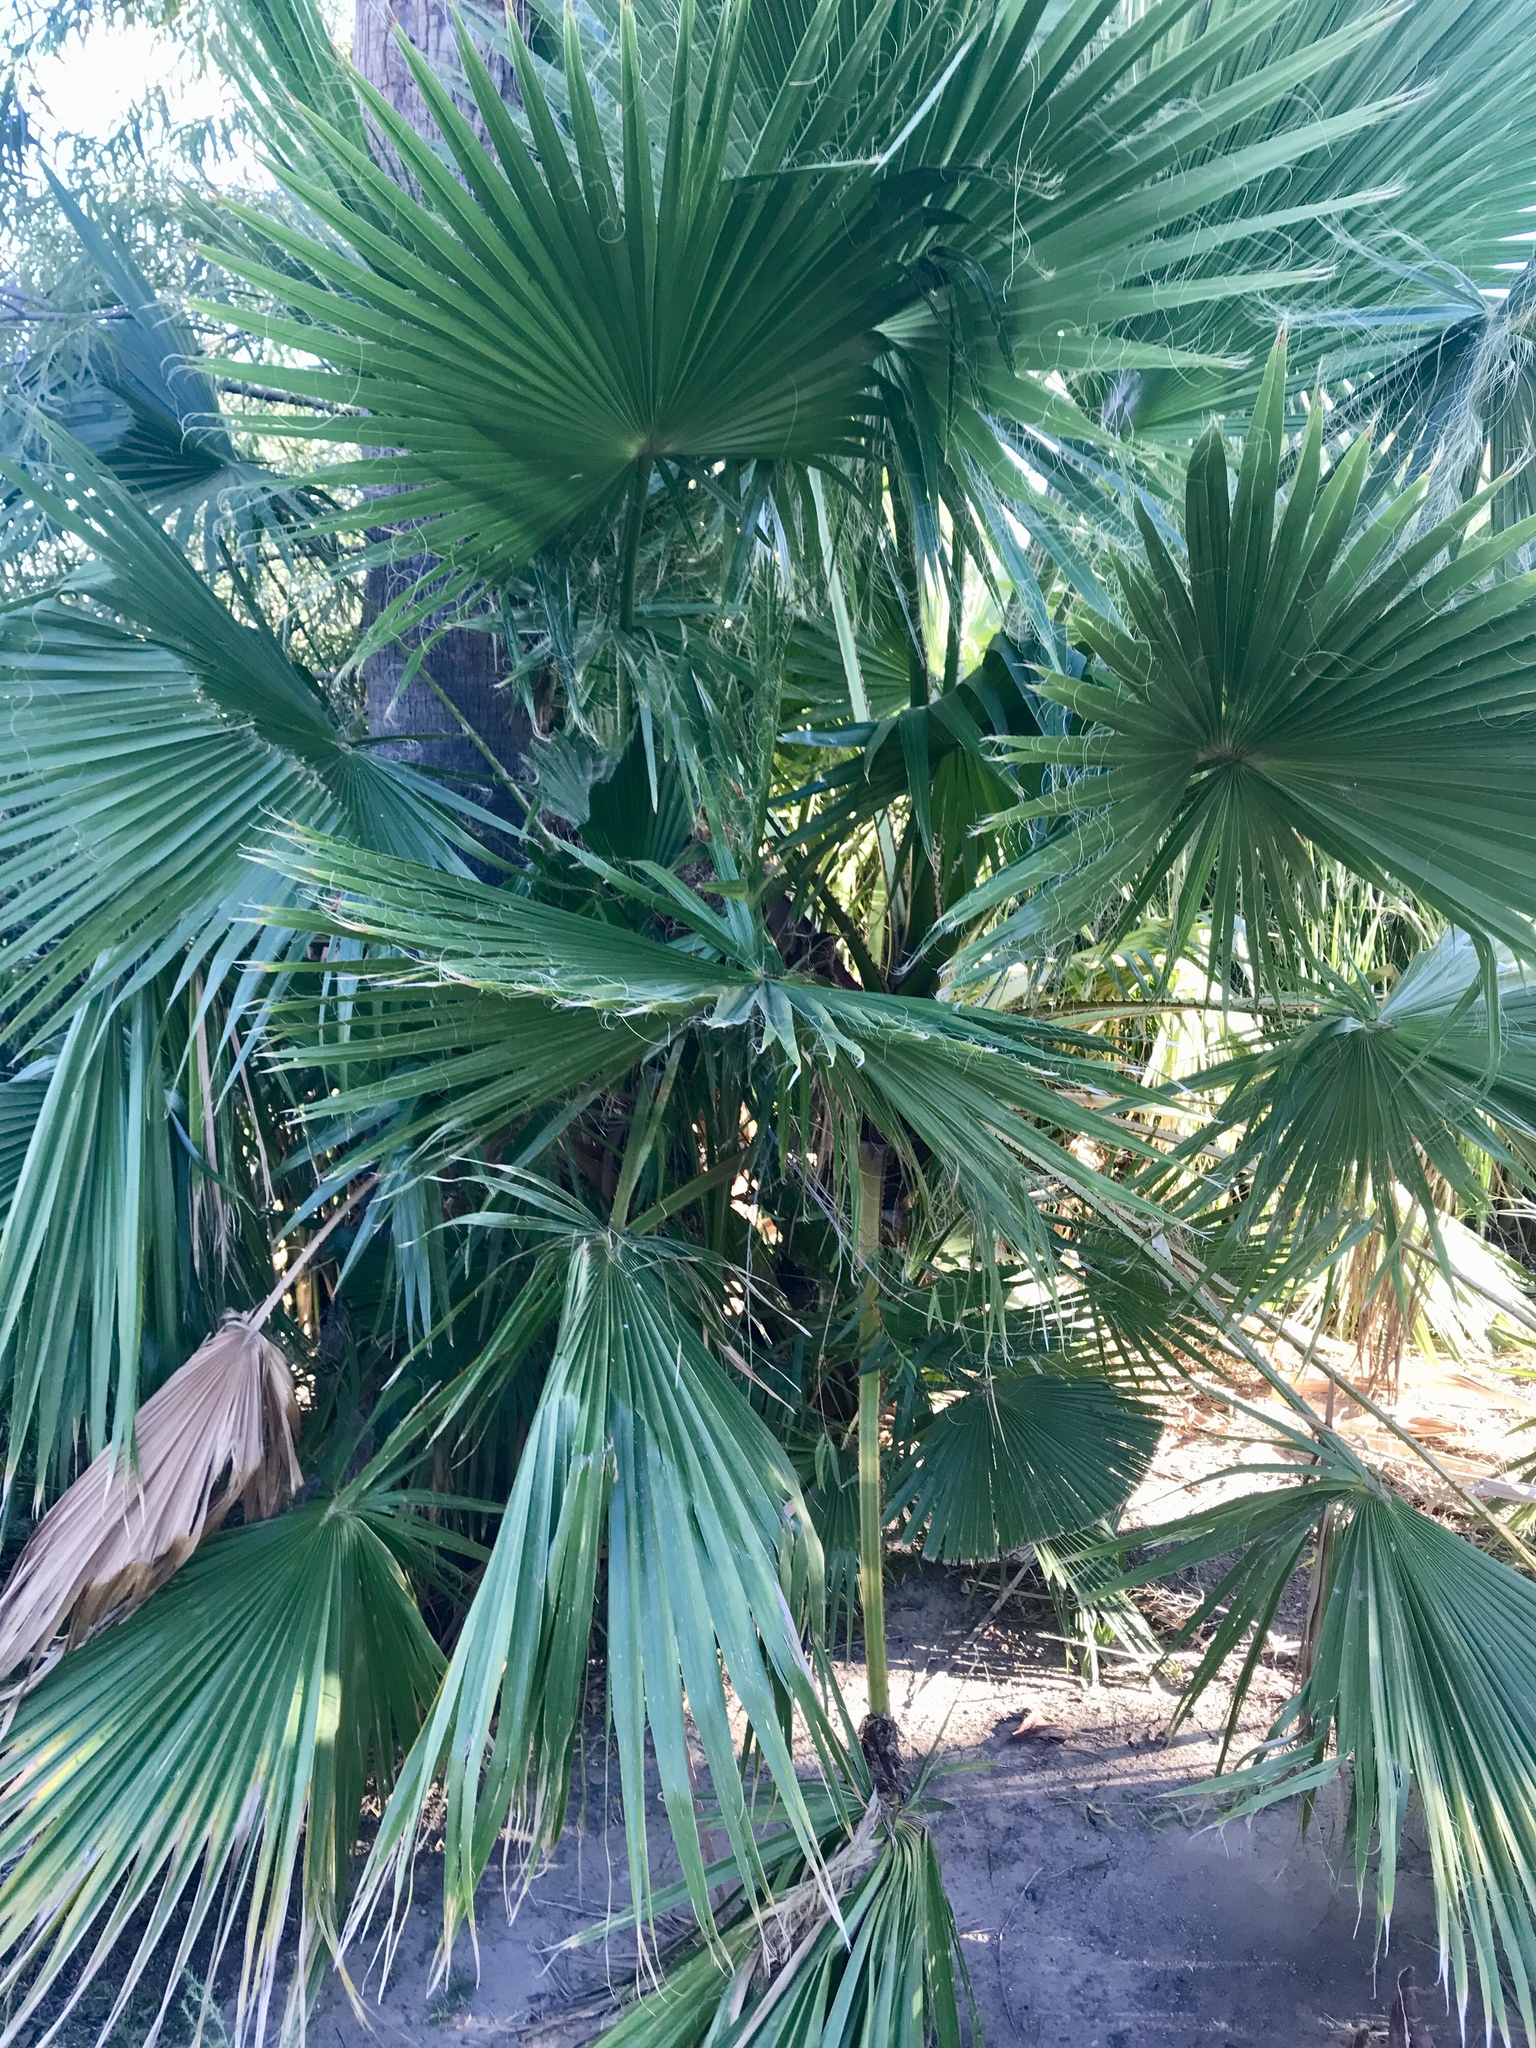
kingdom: Plantae
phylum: Tracheophyta
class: Liliopsida
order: Arecales
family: Arecaceae
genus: Washingtonia
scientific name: Washingtonia robusta
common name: Mexican fan palm
